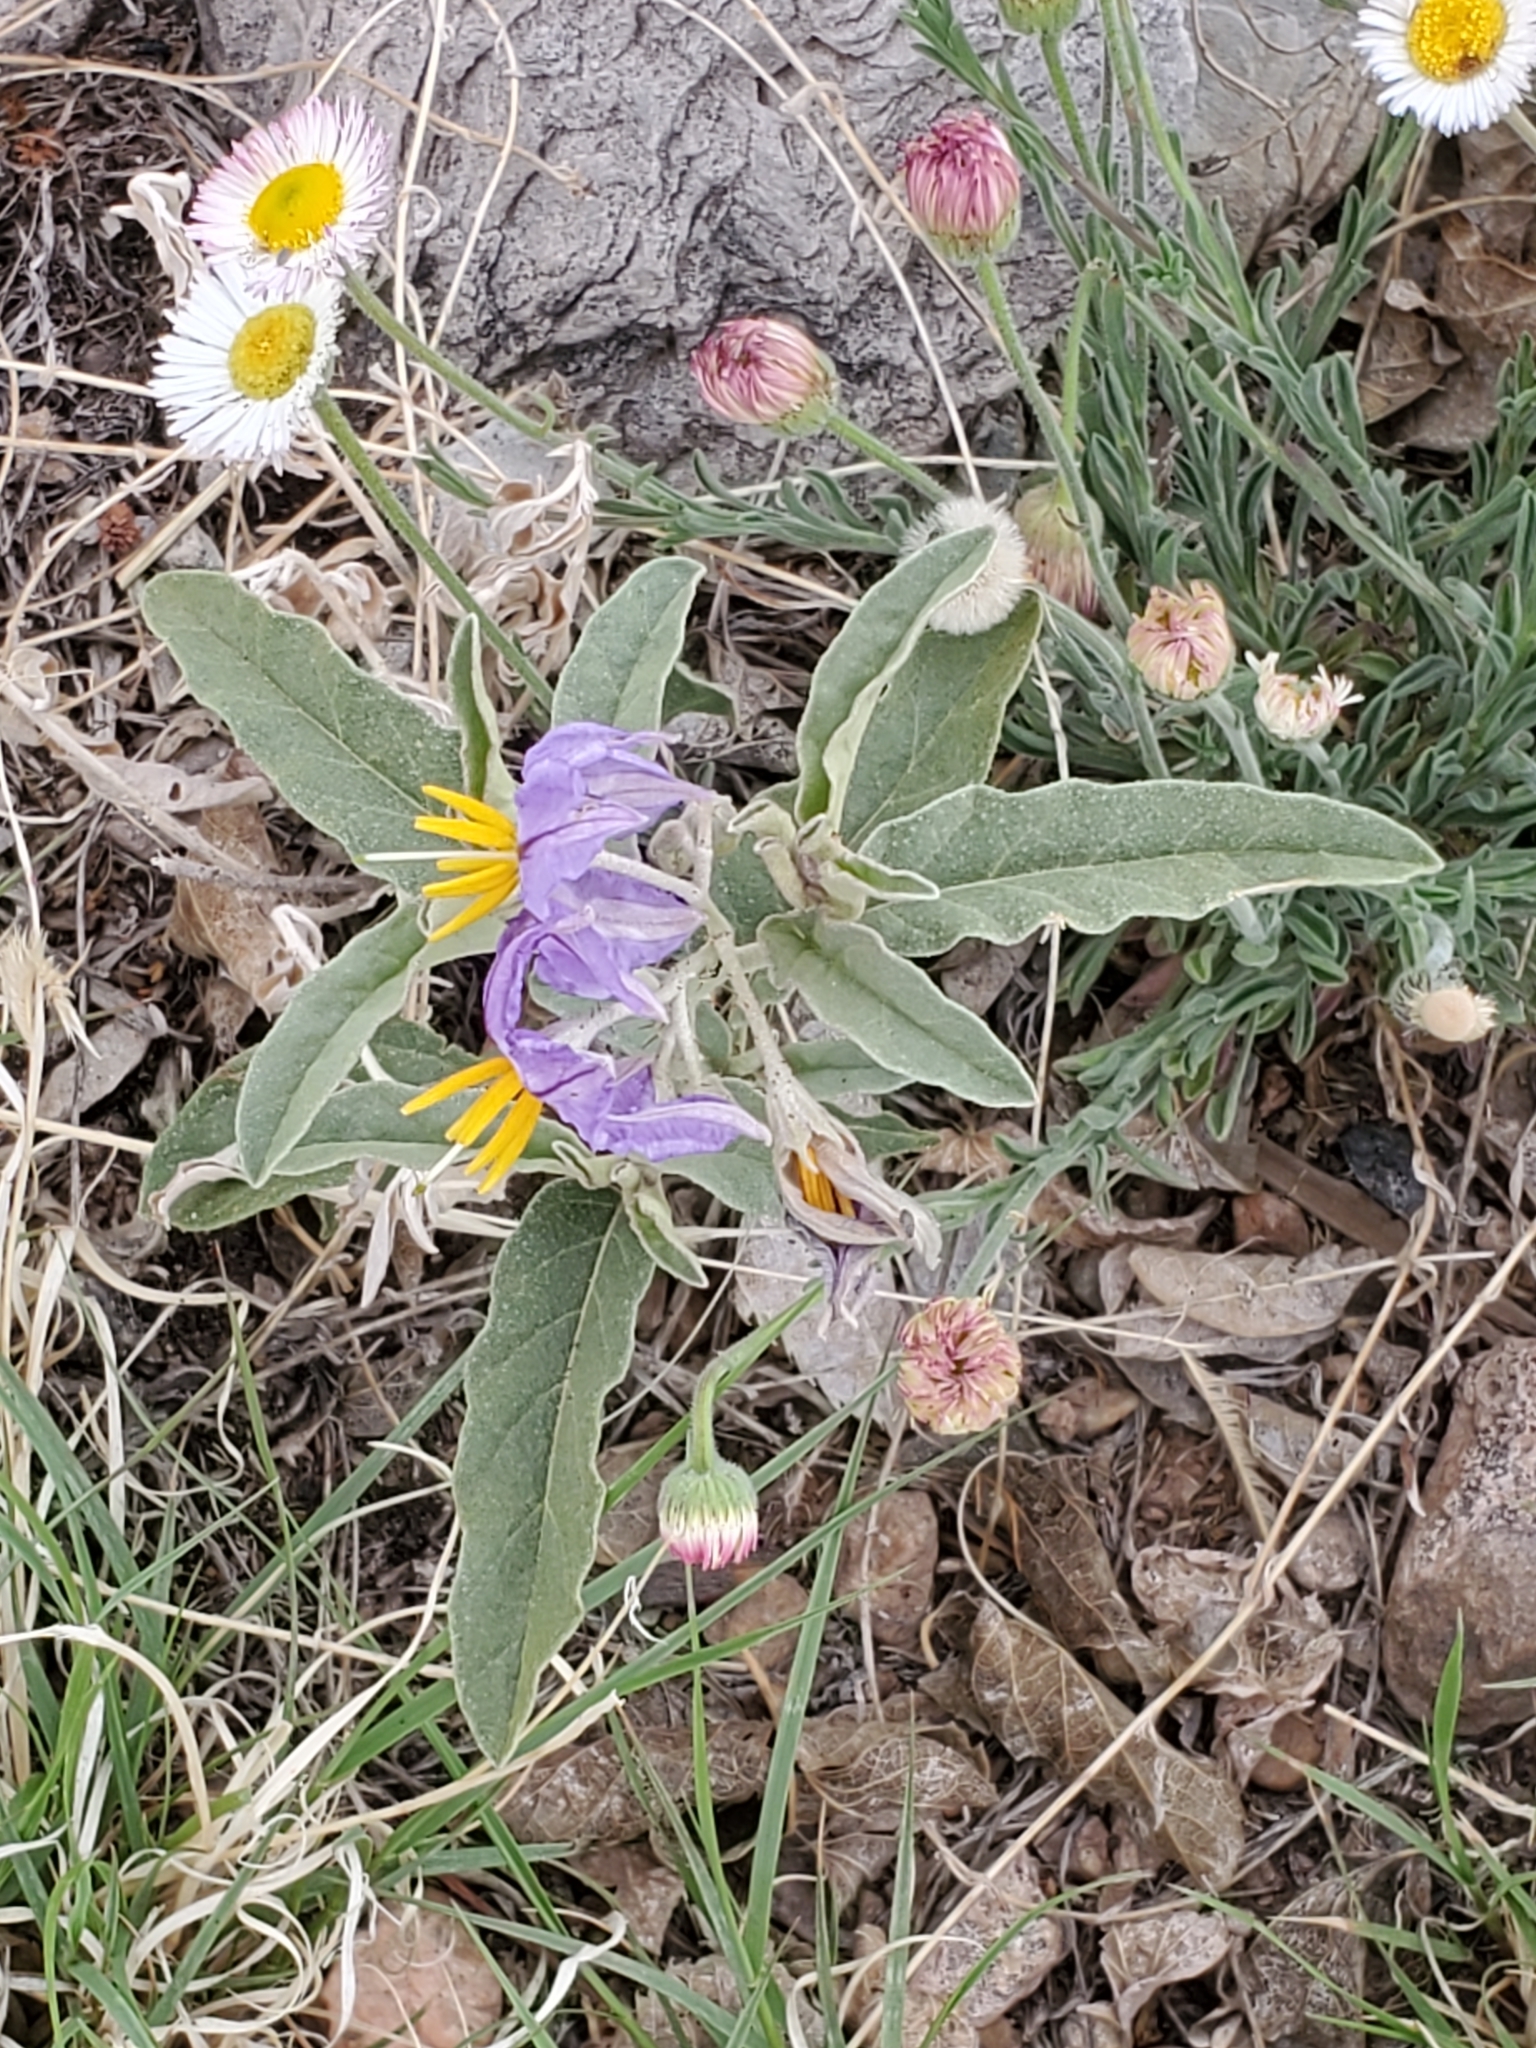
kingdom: Plantae
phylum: Tracheophyta
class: Magnoliopsida
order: Solanales
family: Solanaceae
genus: Solanum
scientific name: Solanum elaeagnifolium
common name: Silverleaf nightshade
